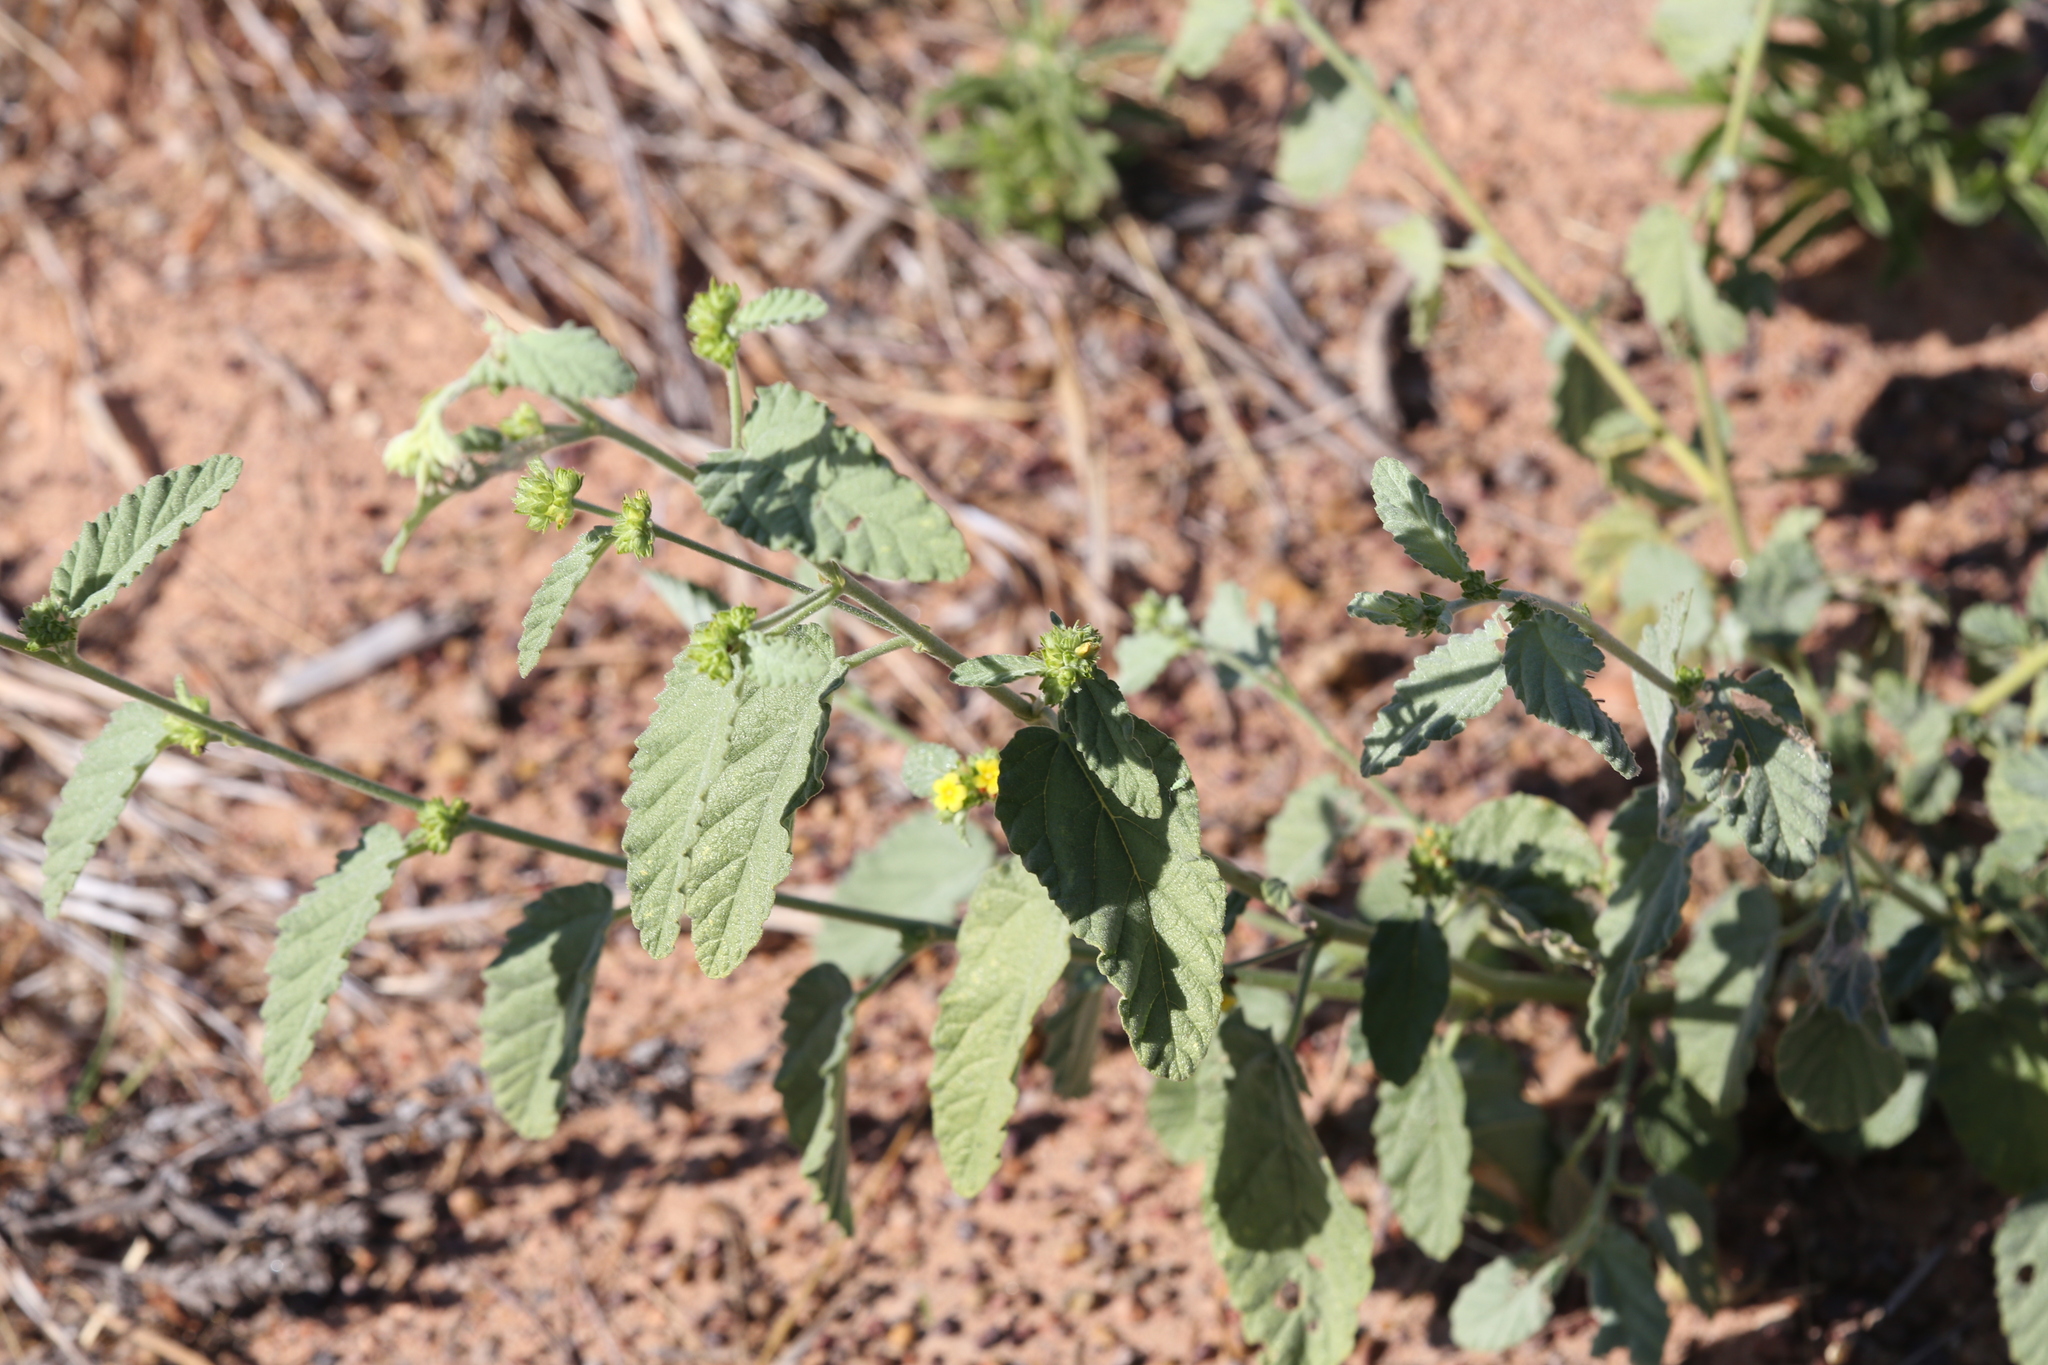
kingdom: Plantae
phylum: Tracheophyta
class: Magnoliopsida
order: Malvales
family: Malvaceae
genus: Waltheria
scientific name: Waltheria indica
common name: Leather-coat
